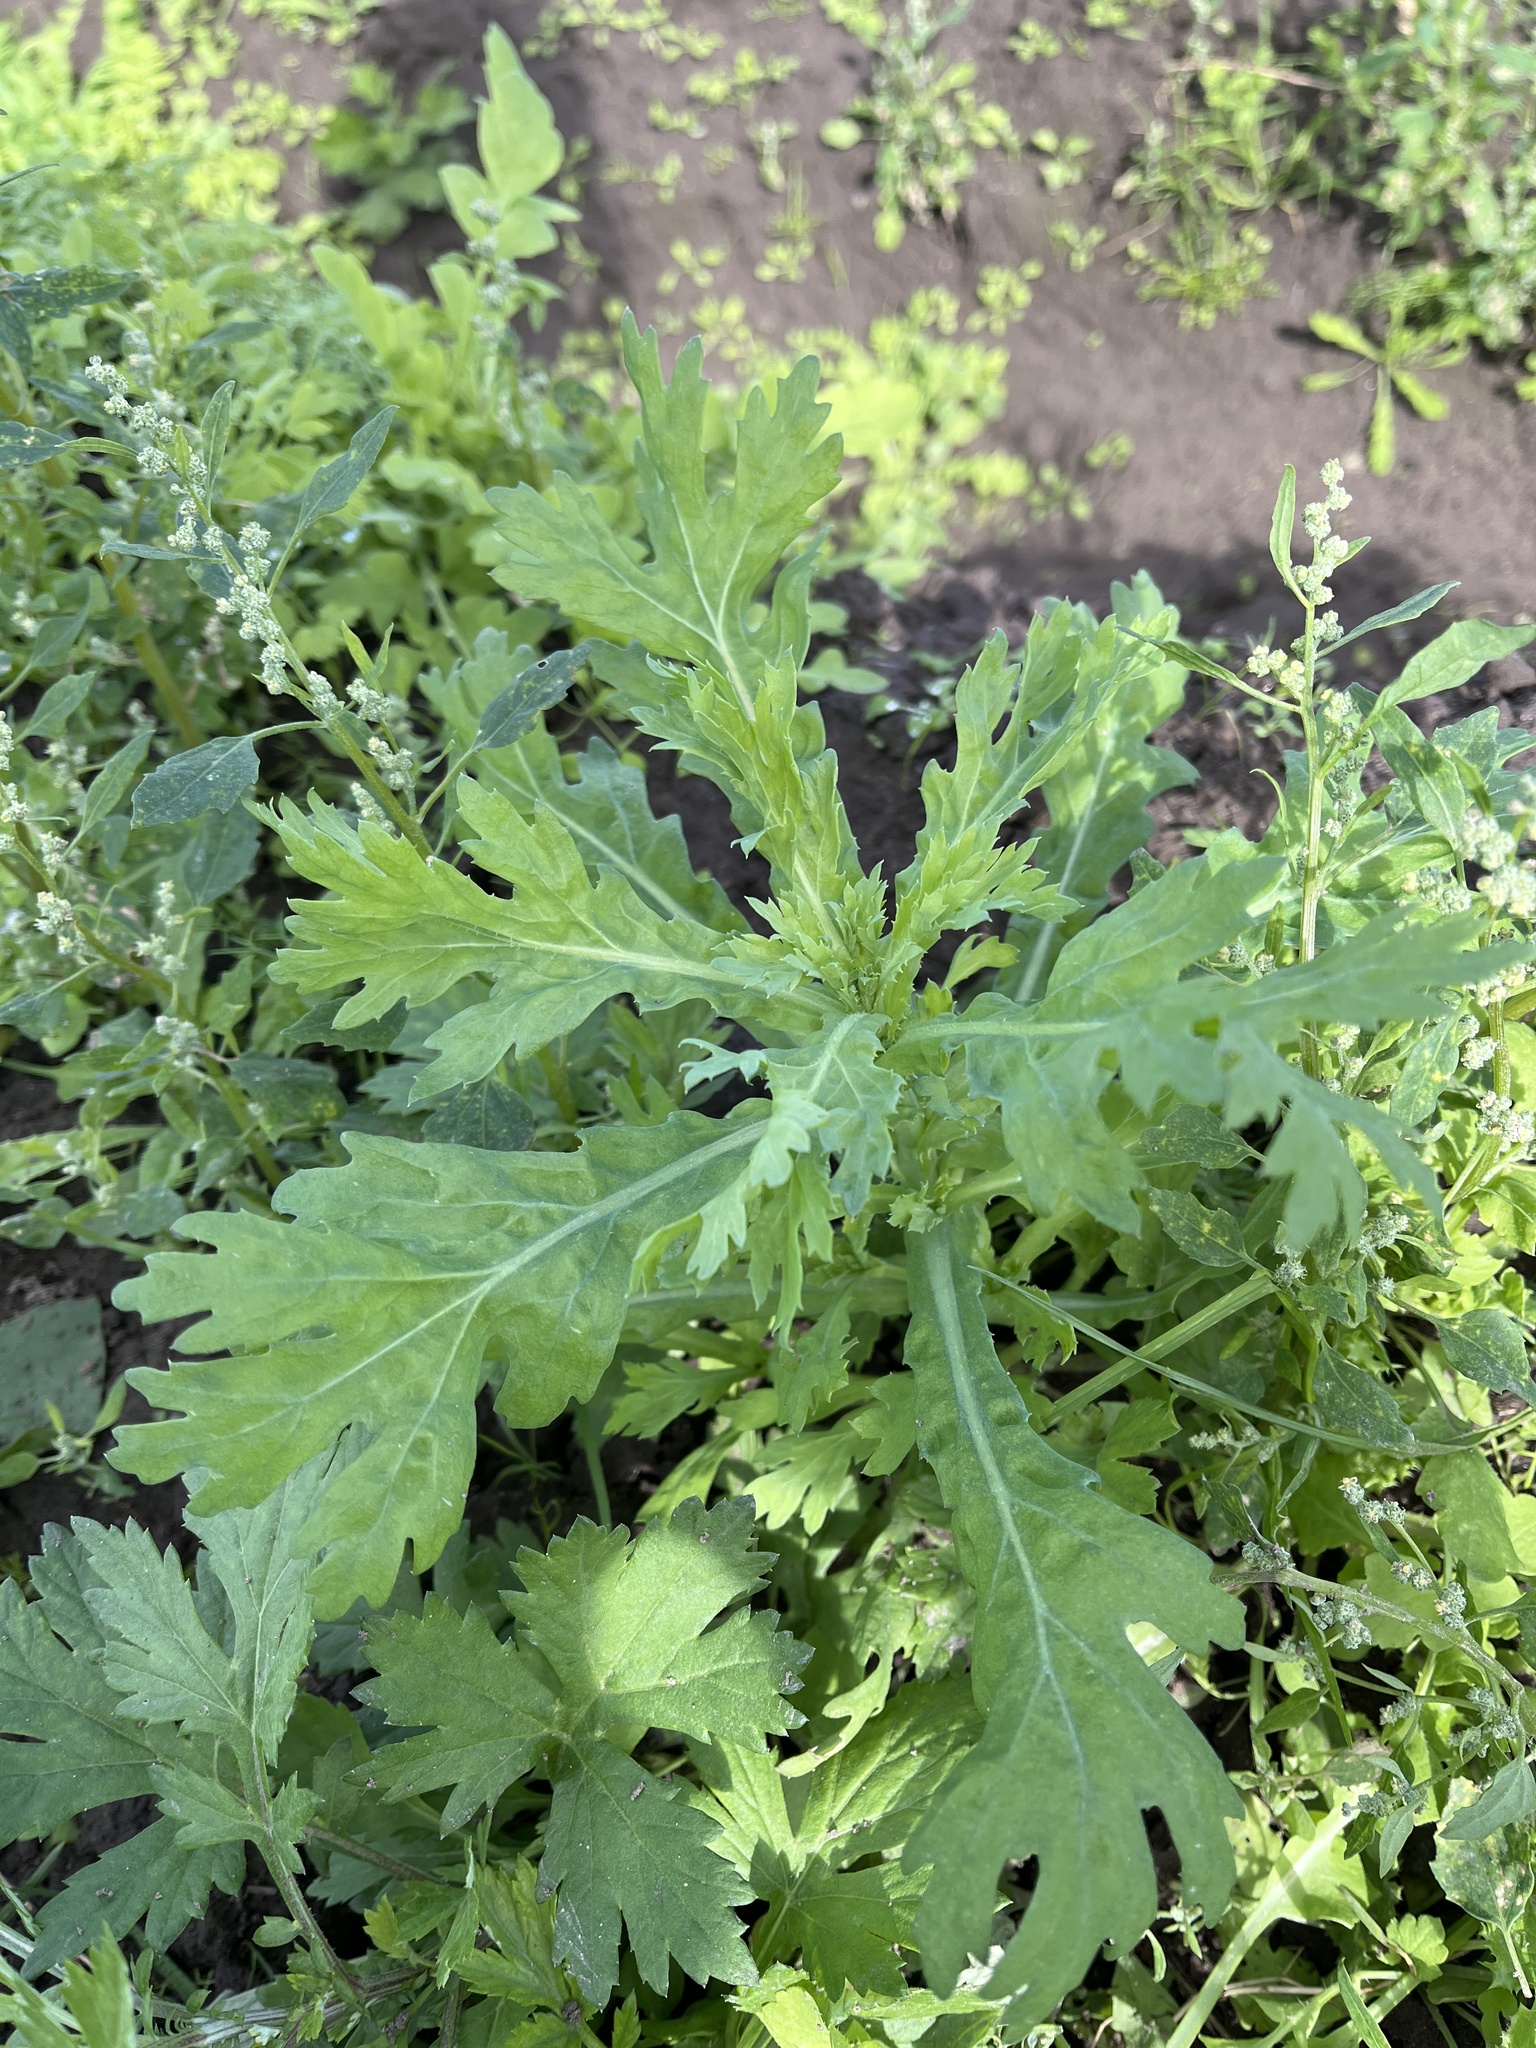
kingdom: Plantae
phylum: Tracheophyta
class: Magnoliopsida
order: Asterales
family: Asteraceae
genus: Glebionis
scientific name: Glebionis segetum
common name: Corndaisy
